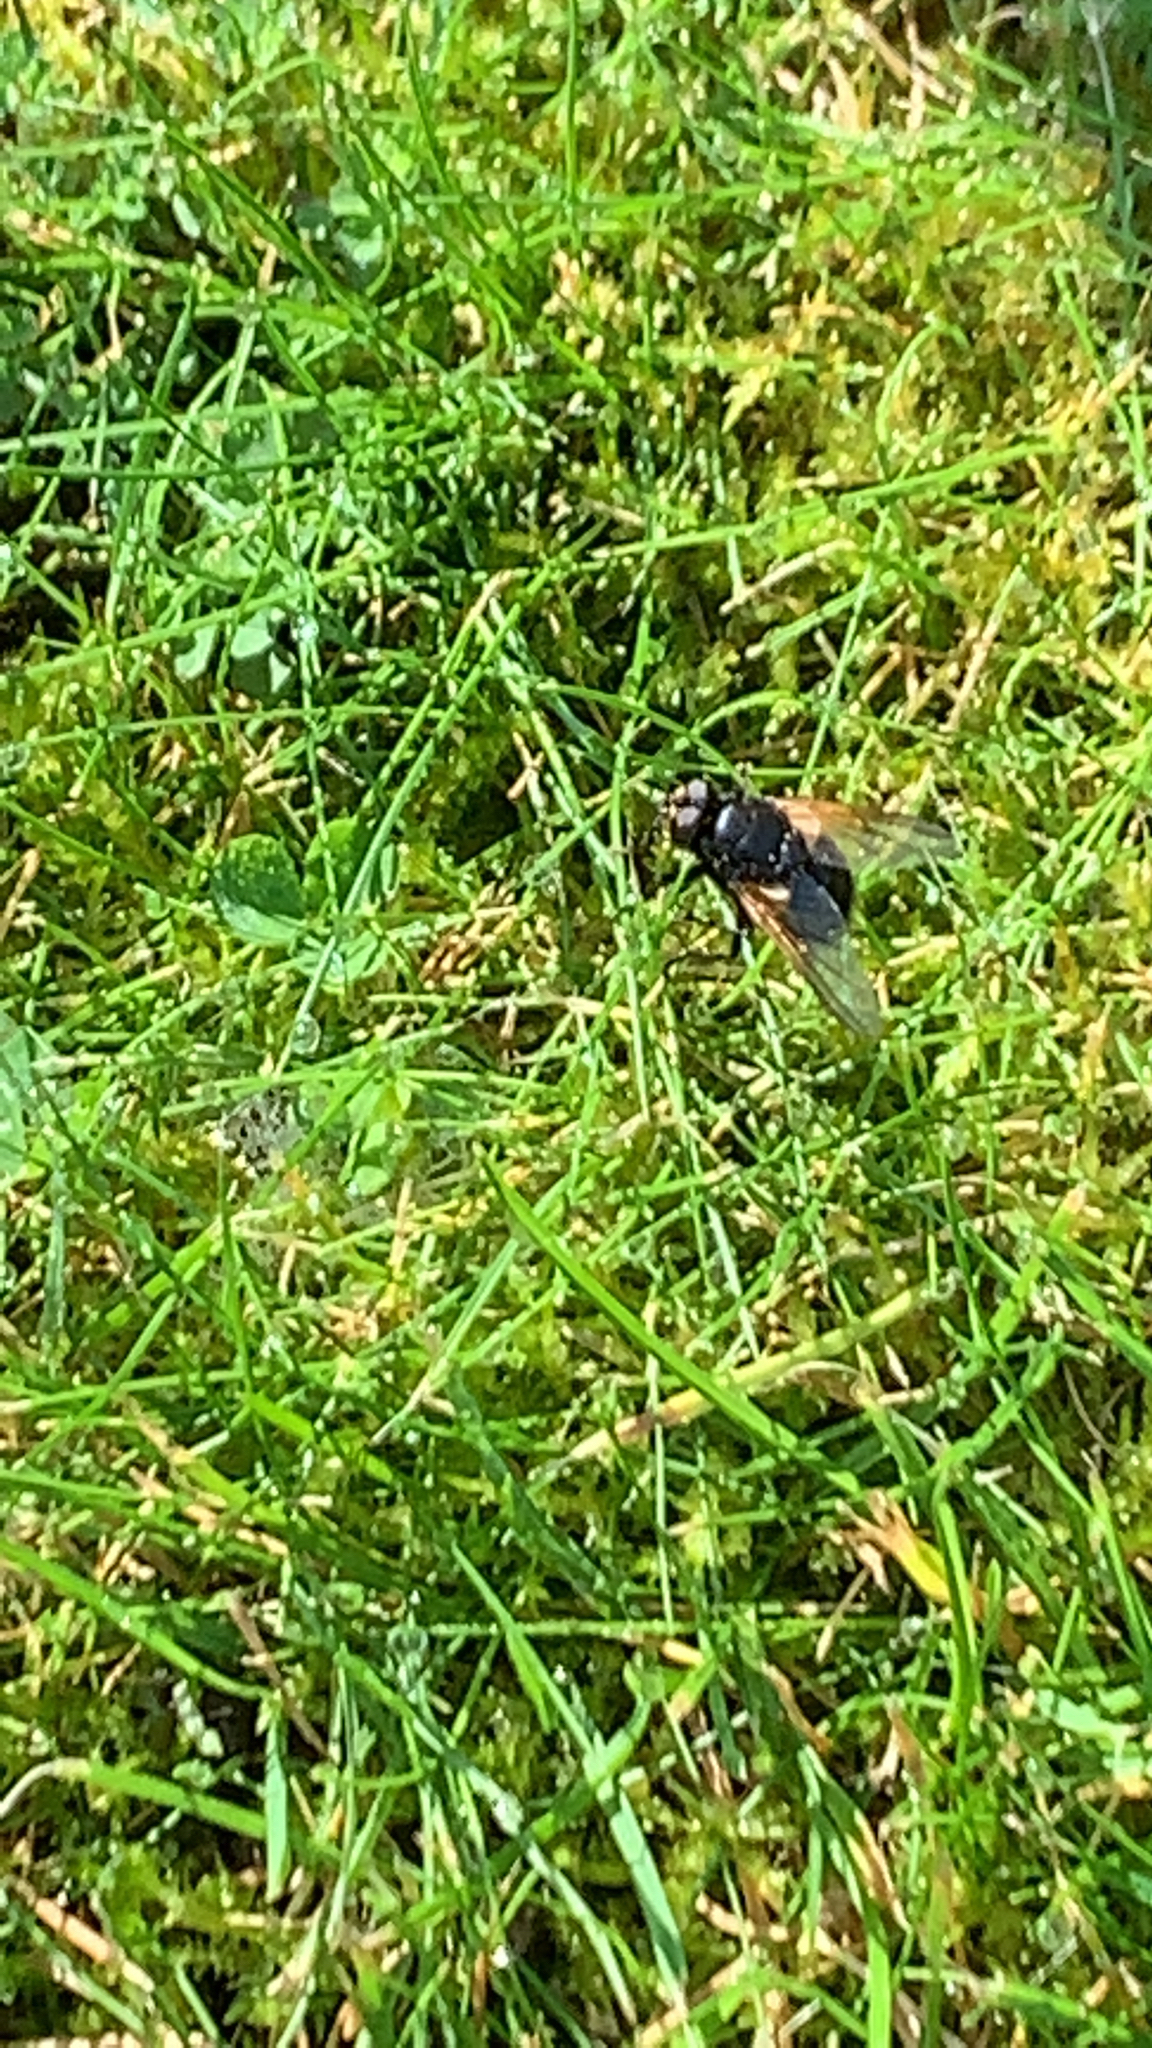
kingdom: Animalia
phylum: Arthropoda
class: Insecta
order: Diptera
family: Muscidae
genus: Mesembrina
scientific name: Mesembrina meridiana
